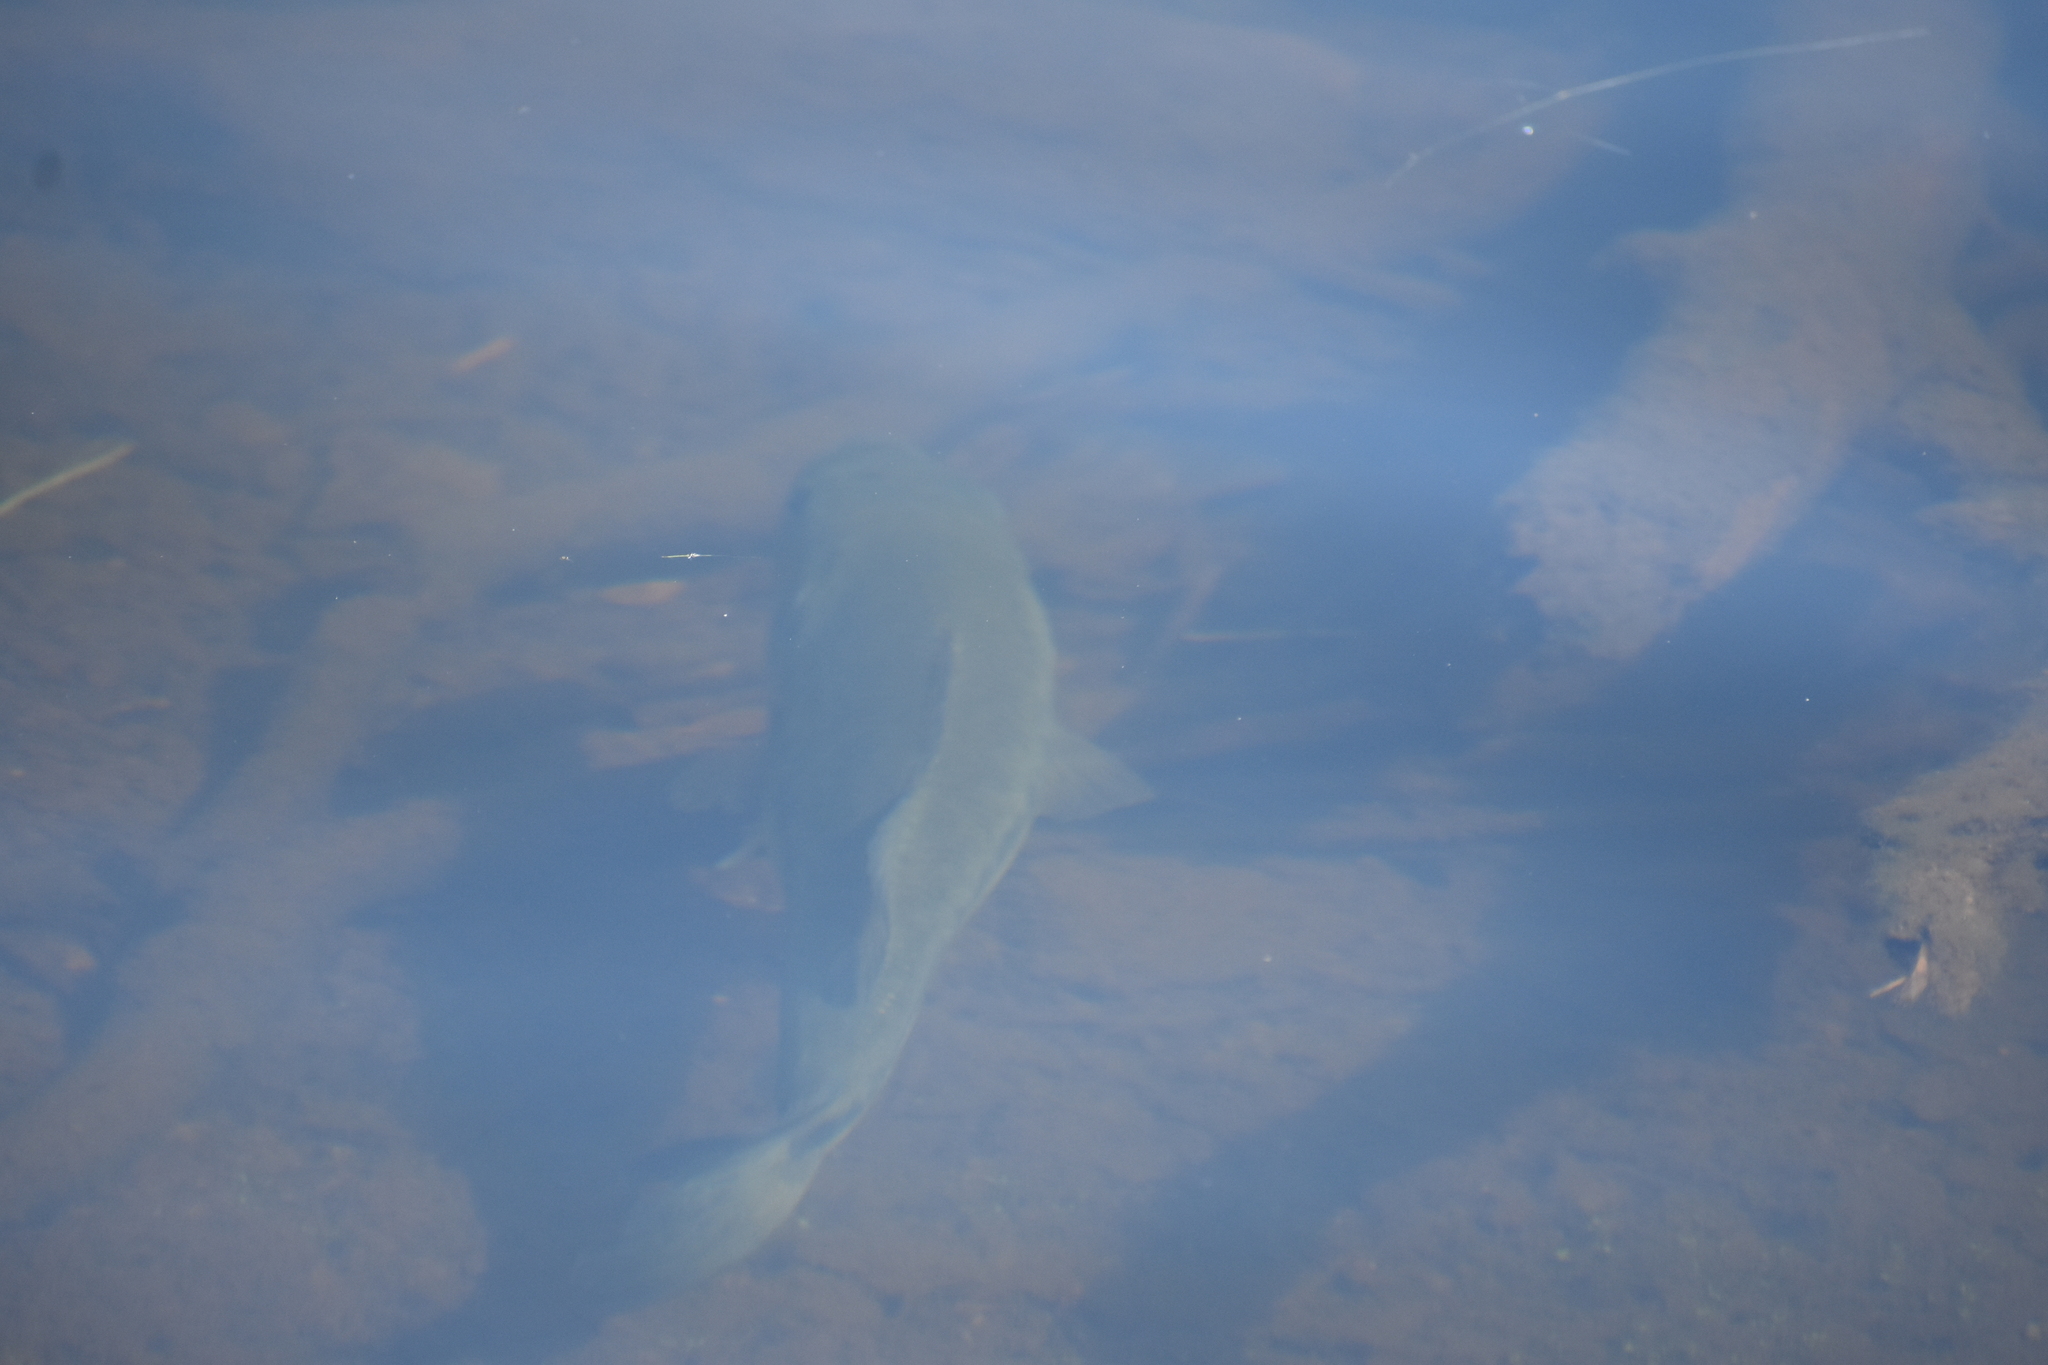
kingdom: Animalia
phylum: Chordata
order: Perciformes
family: Centrarchidae
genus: Micropterus
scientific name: Micropterus
